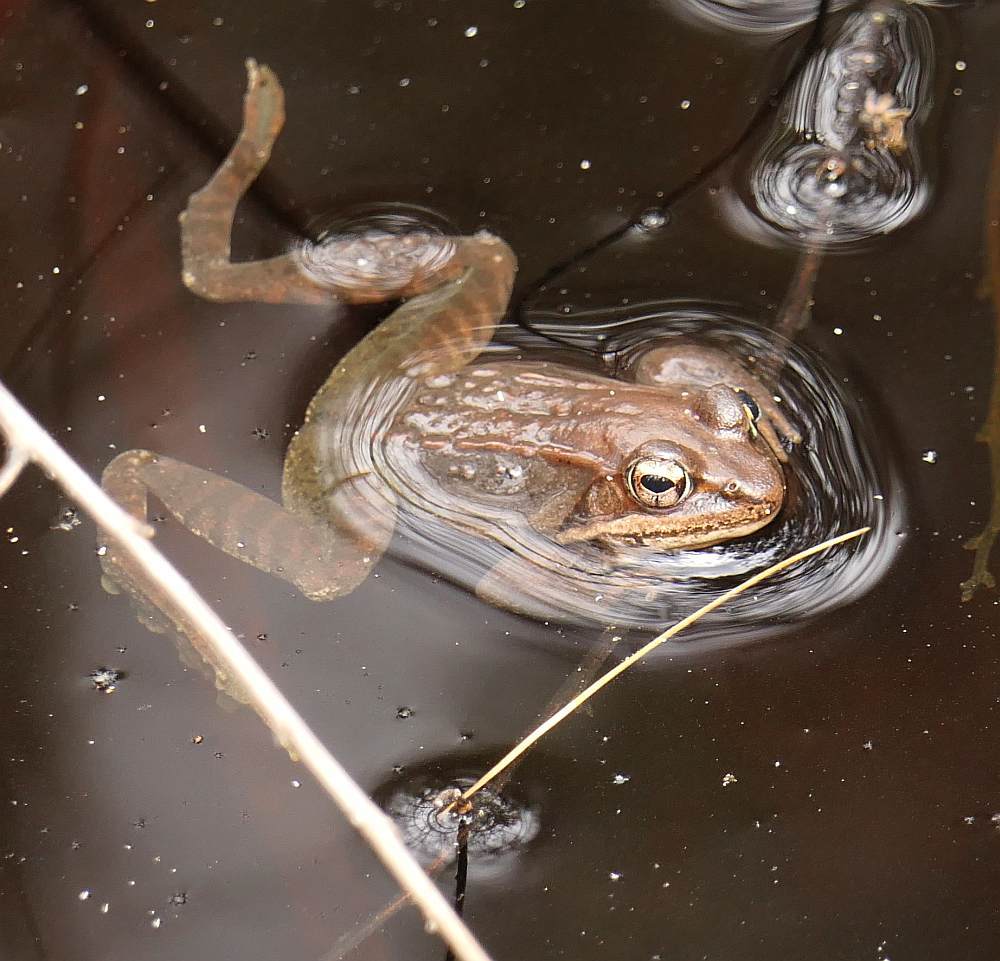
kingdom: Animalia
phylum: Chordata
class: Amphibia
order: Anura
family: Ranidae
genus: Lithobates
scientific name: Lithobates sylvaticus
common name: Wood frog
